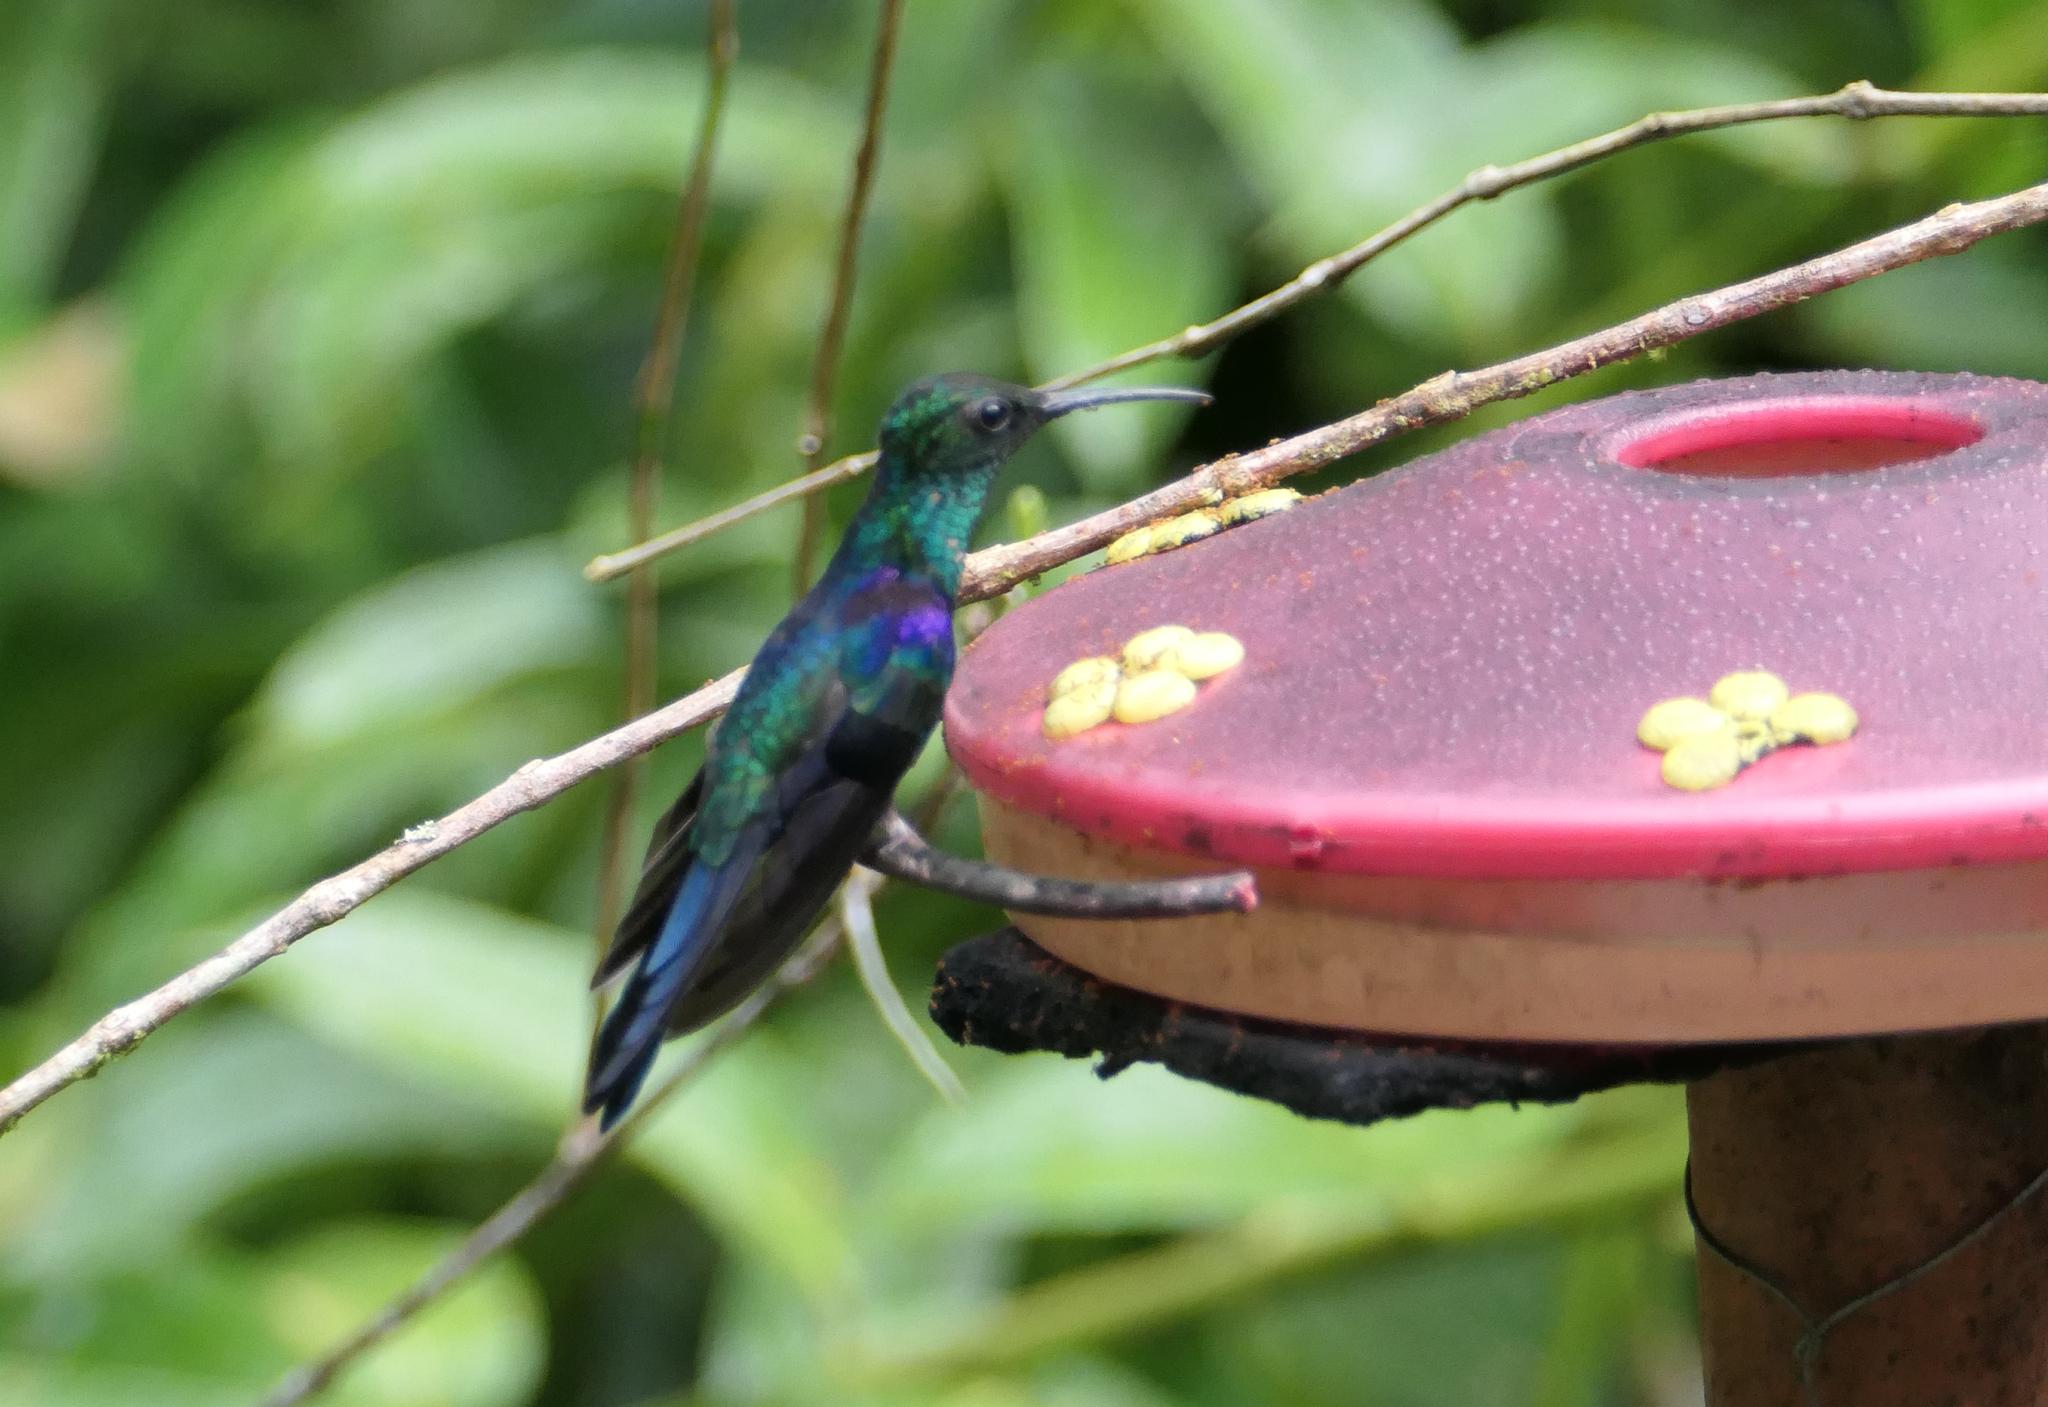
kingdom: Animalia
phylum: Chordata
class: Aves
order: Apodiformes
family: Trochilidae
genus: Thalurania
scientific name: Thalurania furcata
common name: Fork-tailed woodnymph
